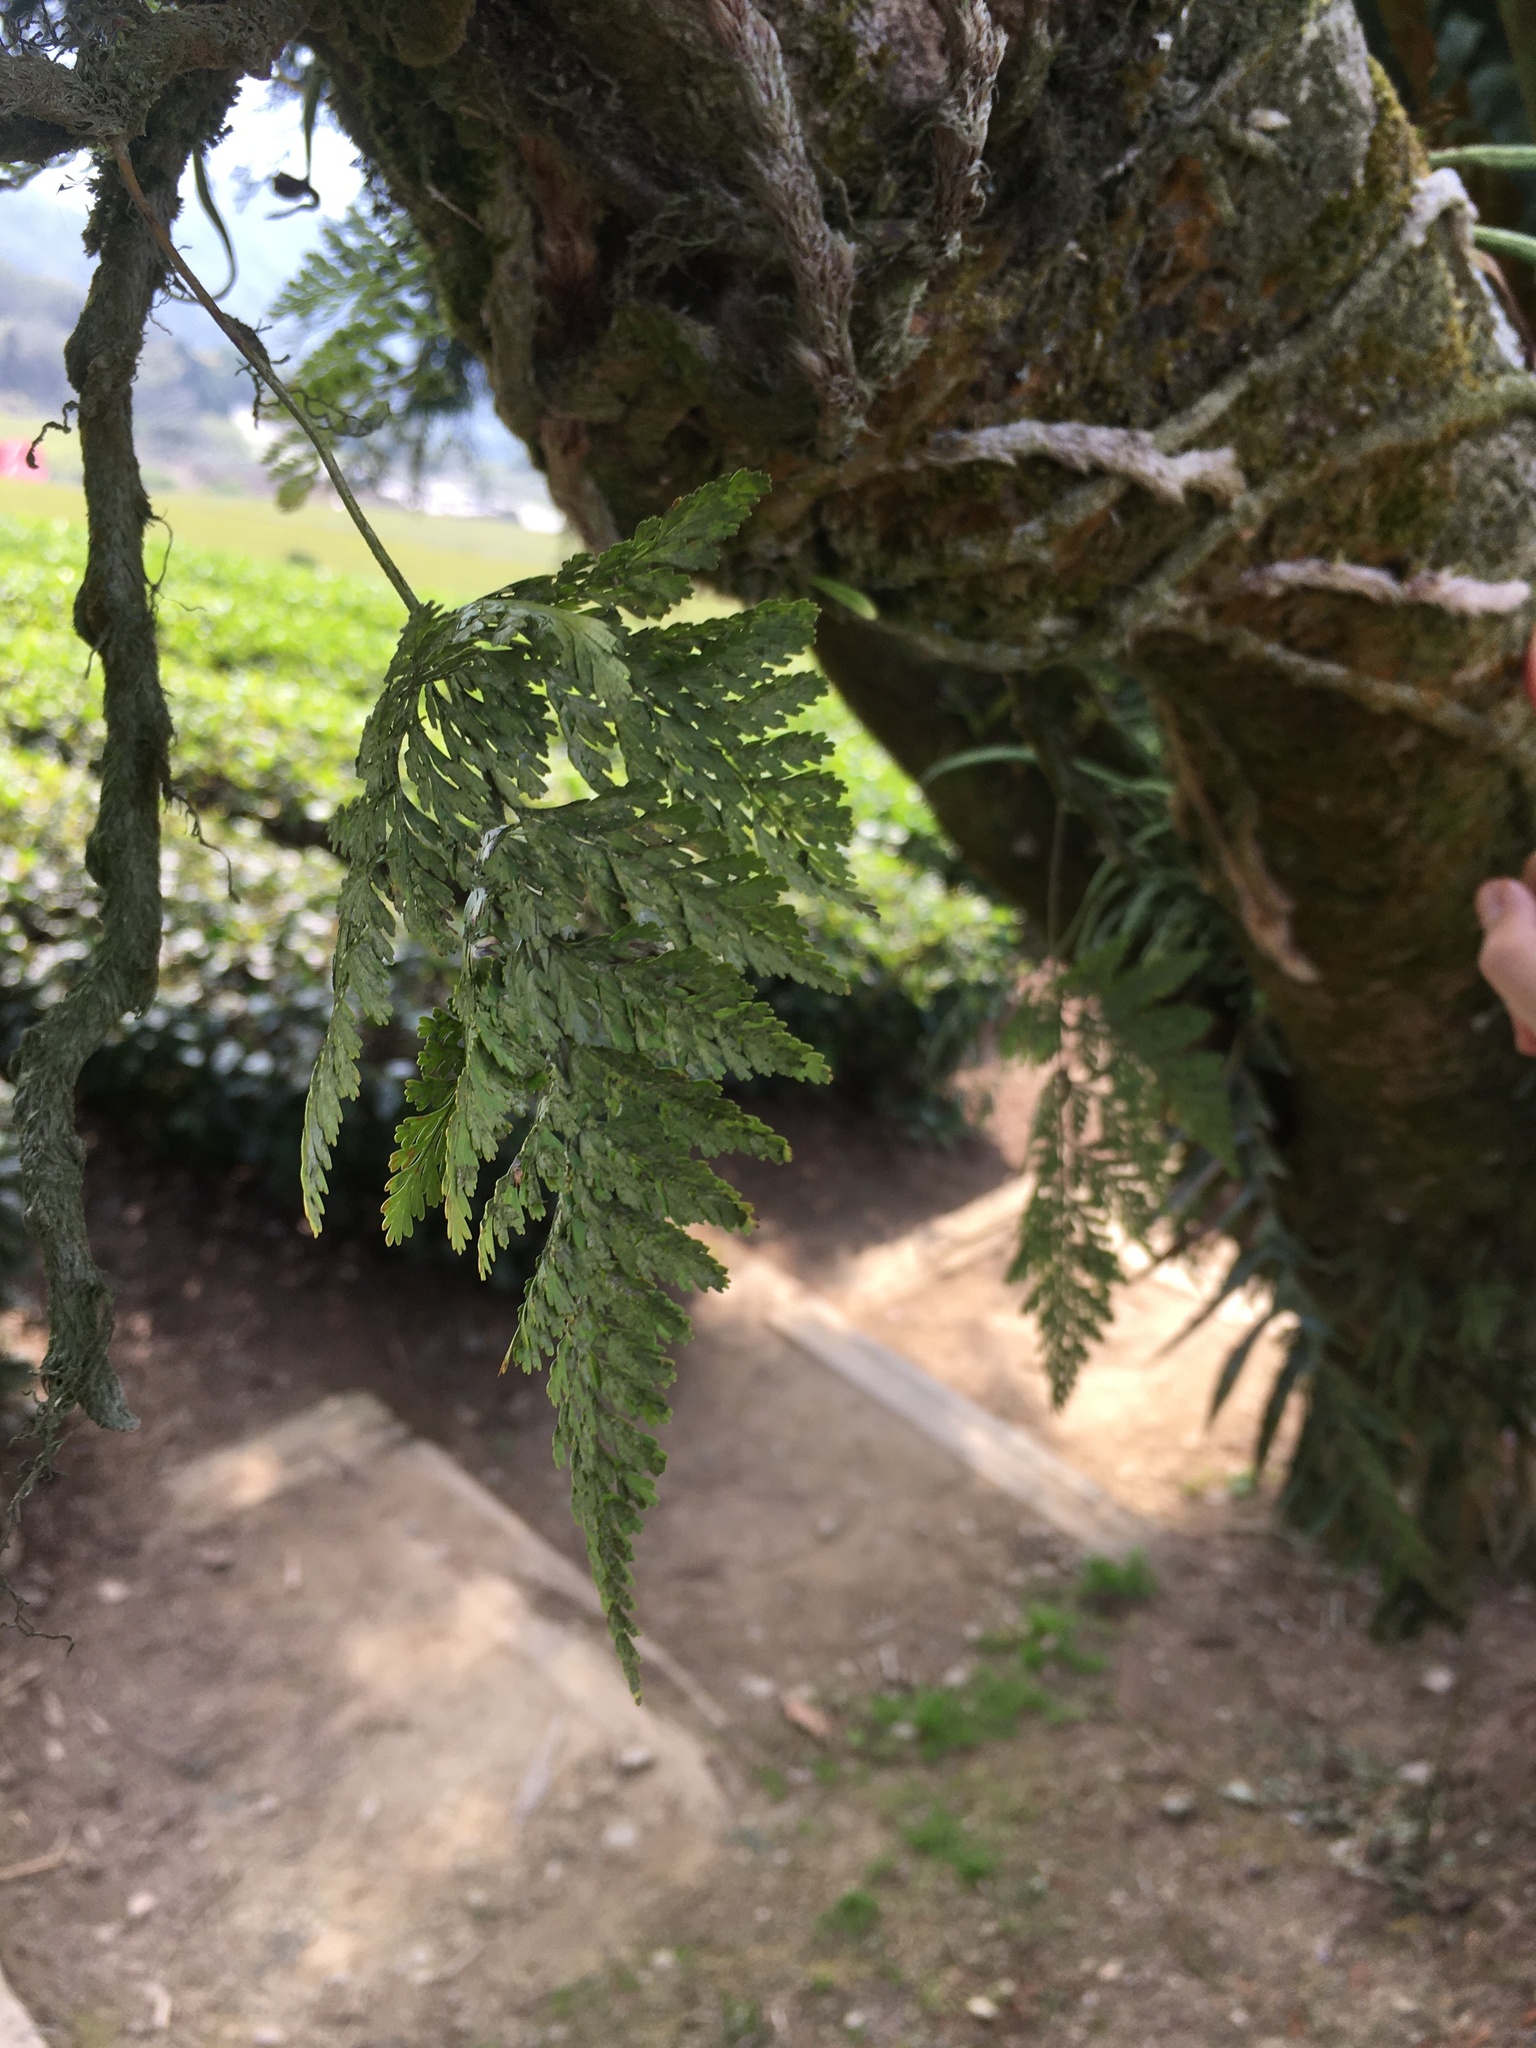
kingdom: Plantae
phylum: Tracheophyta
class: Polypodiopsida
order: Polypodiales
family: Davalliaceae
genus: Davallia
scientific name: Davallia griffithiana
